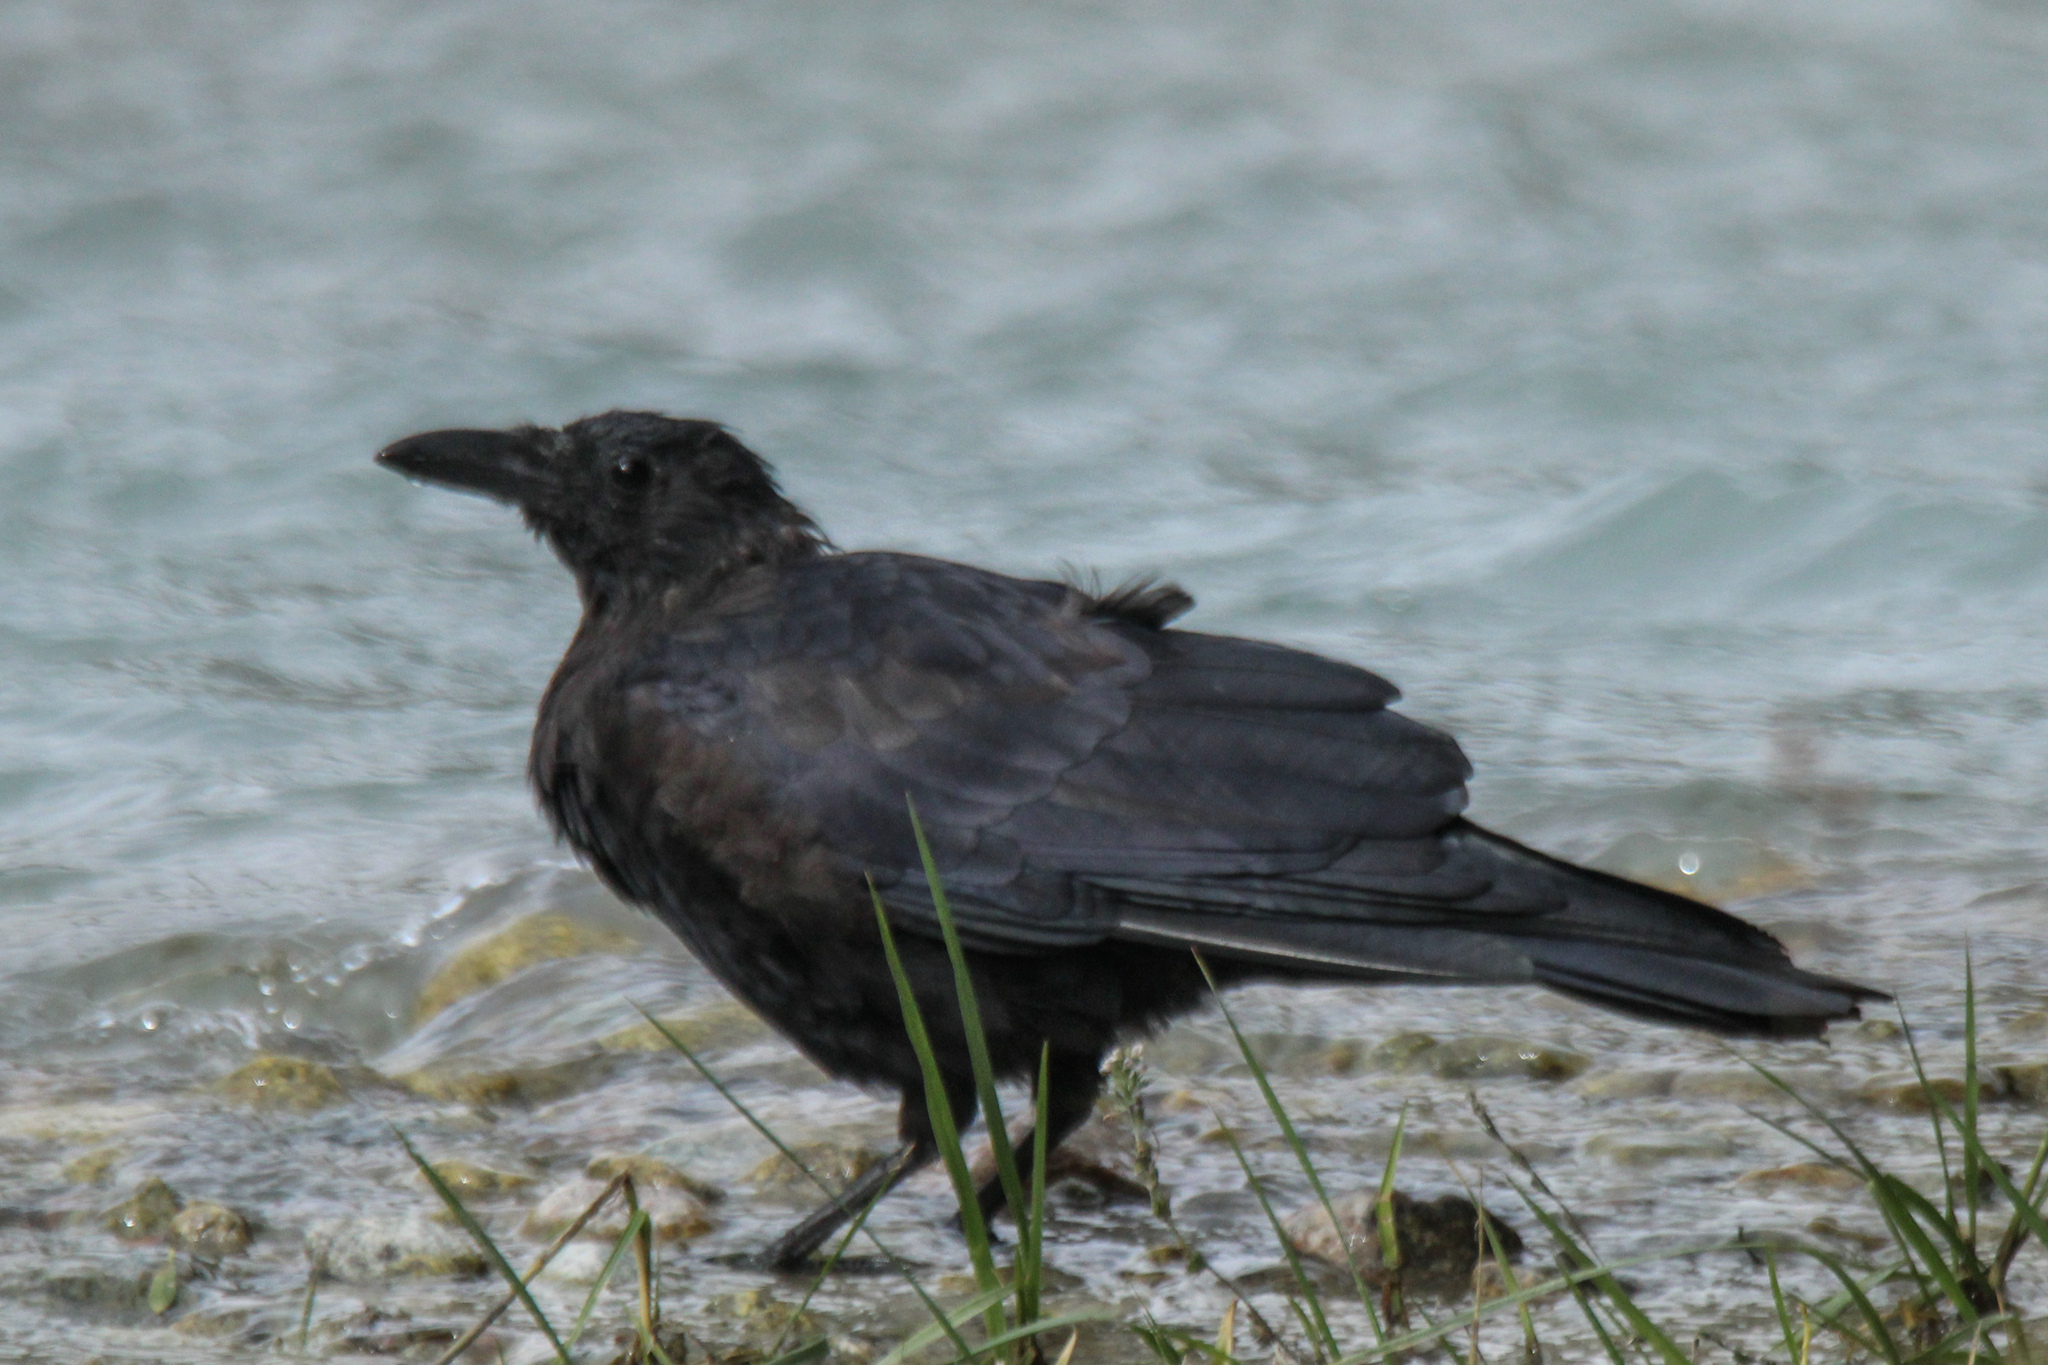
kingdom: Animalia
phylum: Chordata
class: Aves
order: Passeriformes
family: Corvidae
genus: Corvus
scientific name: Corvus corone
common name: Carrion crow
